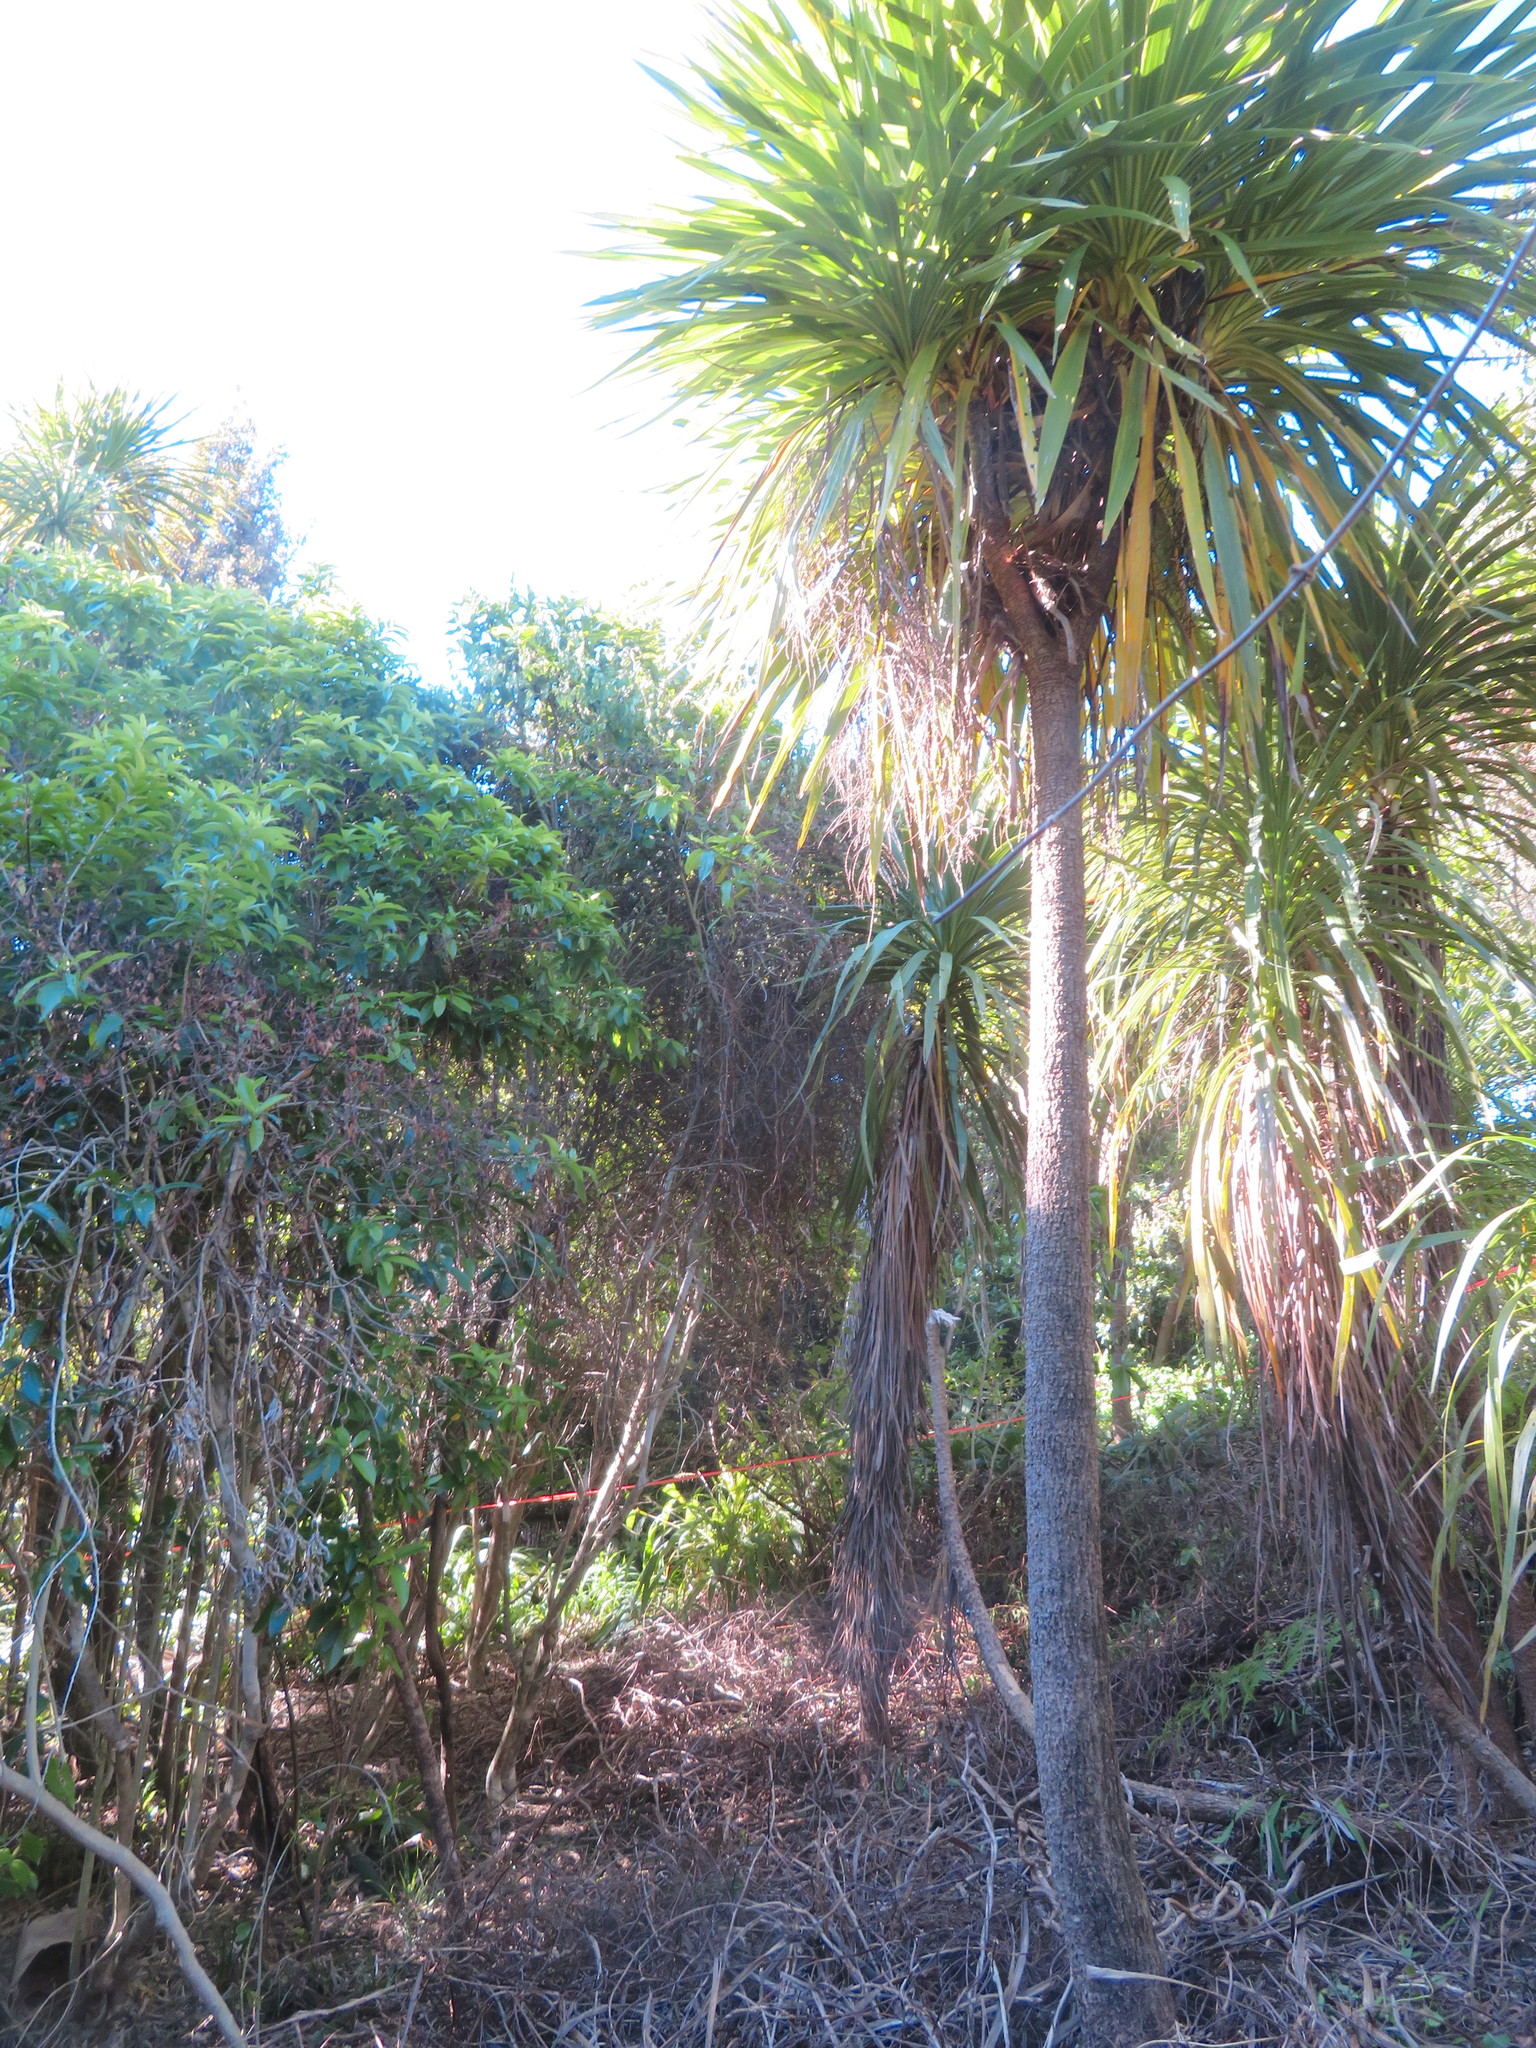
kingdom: Plantae
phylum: Tracheophyta
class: Liliopsida
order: Asparagales
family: Asparagaceae
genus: Cordyline
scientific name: Cordyline australis
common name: Cabbage-palm
